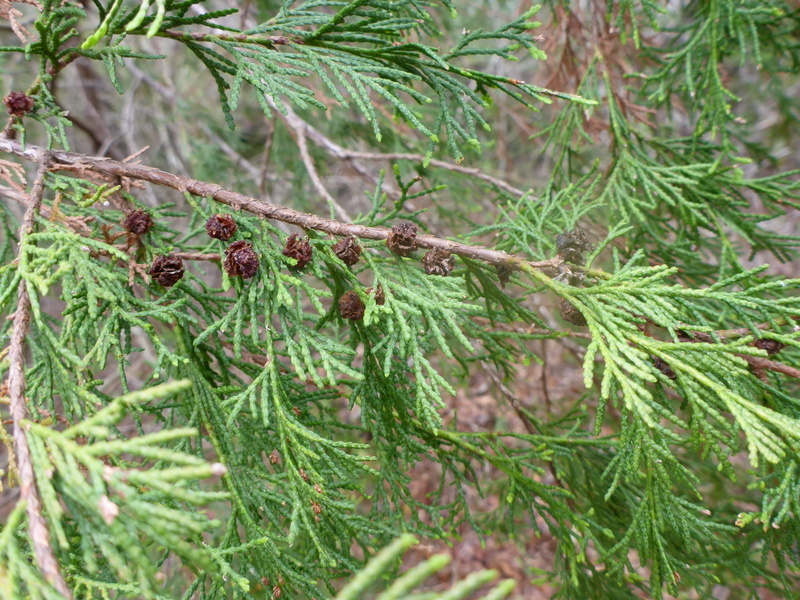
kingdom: Plantae
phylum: Tracheophyta
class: Pinopsida
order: Pinales
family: Cupressaceae
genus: Chamaecyparis
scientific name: Chamaecyparis thyoides
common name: Atlantic white cedar
